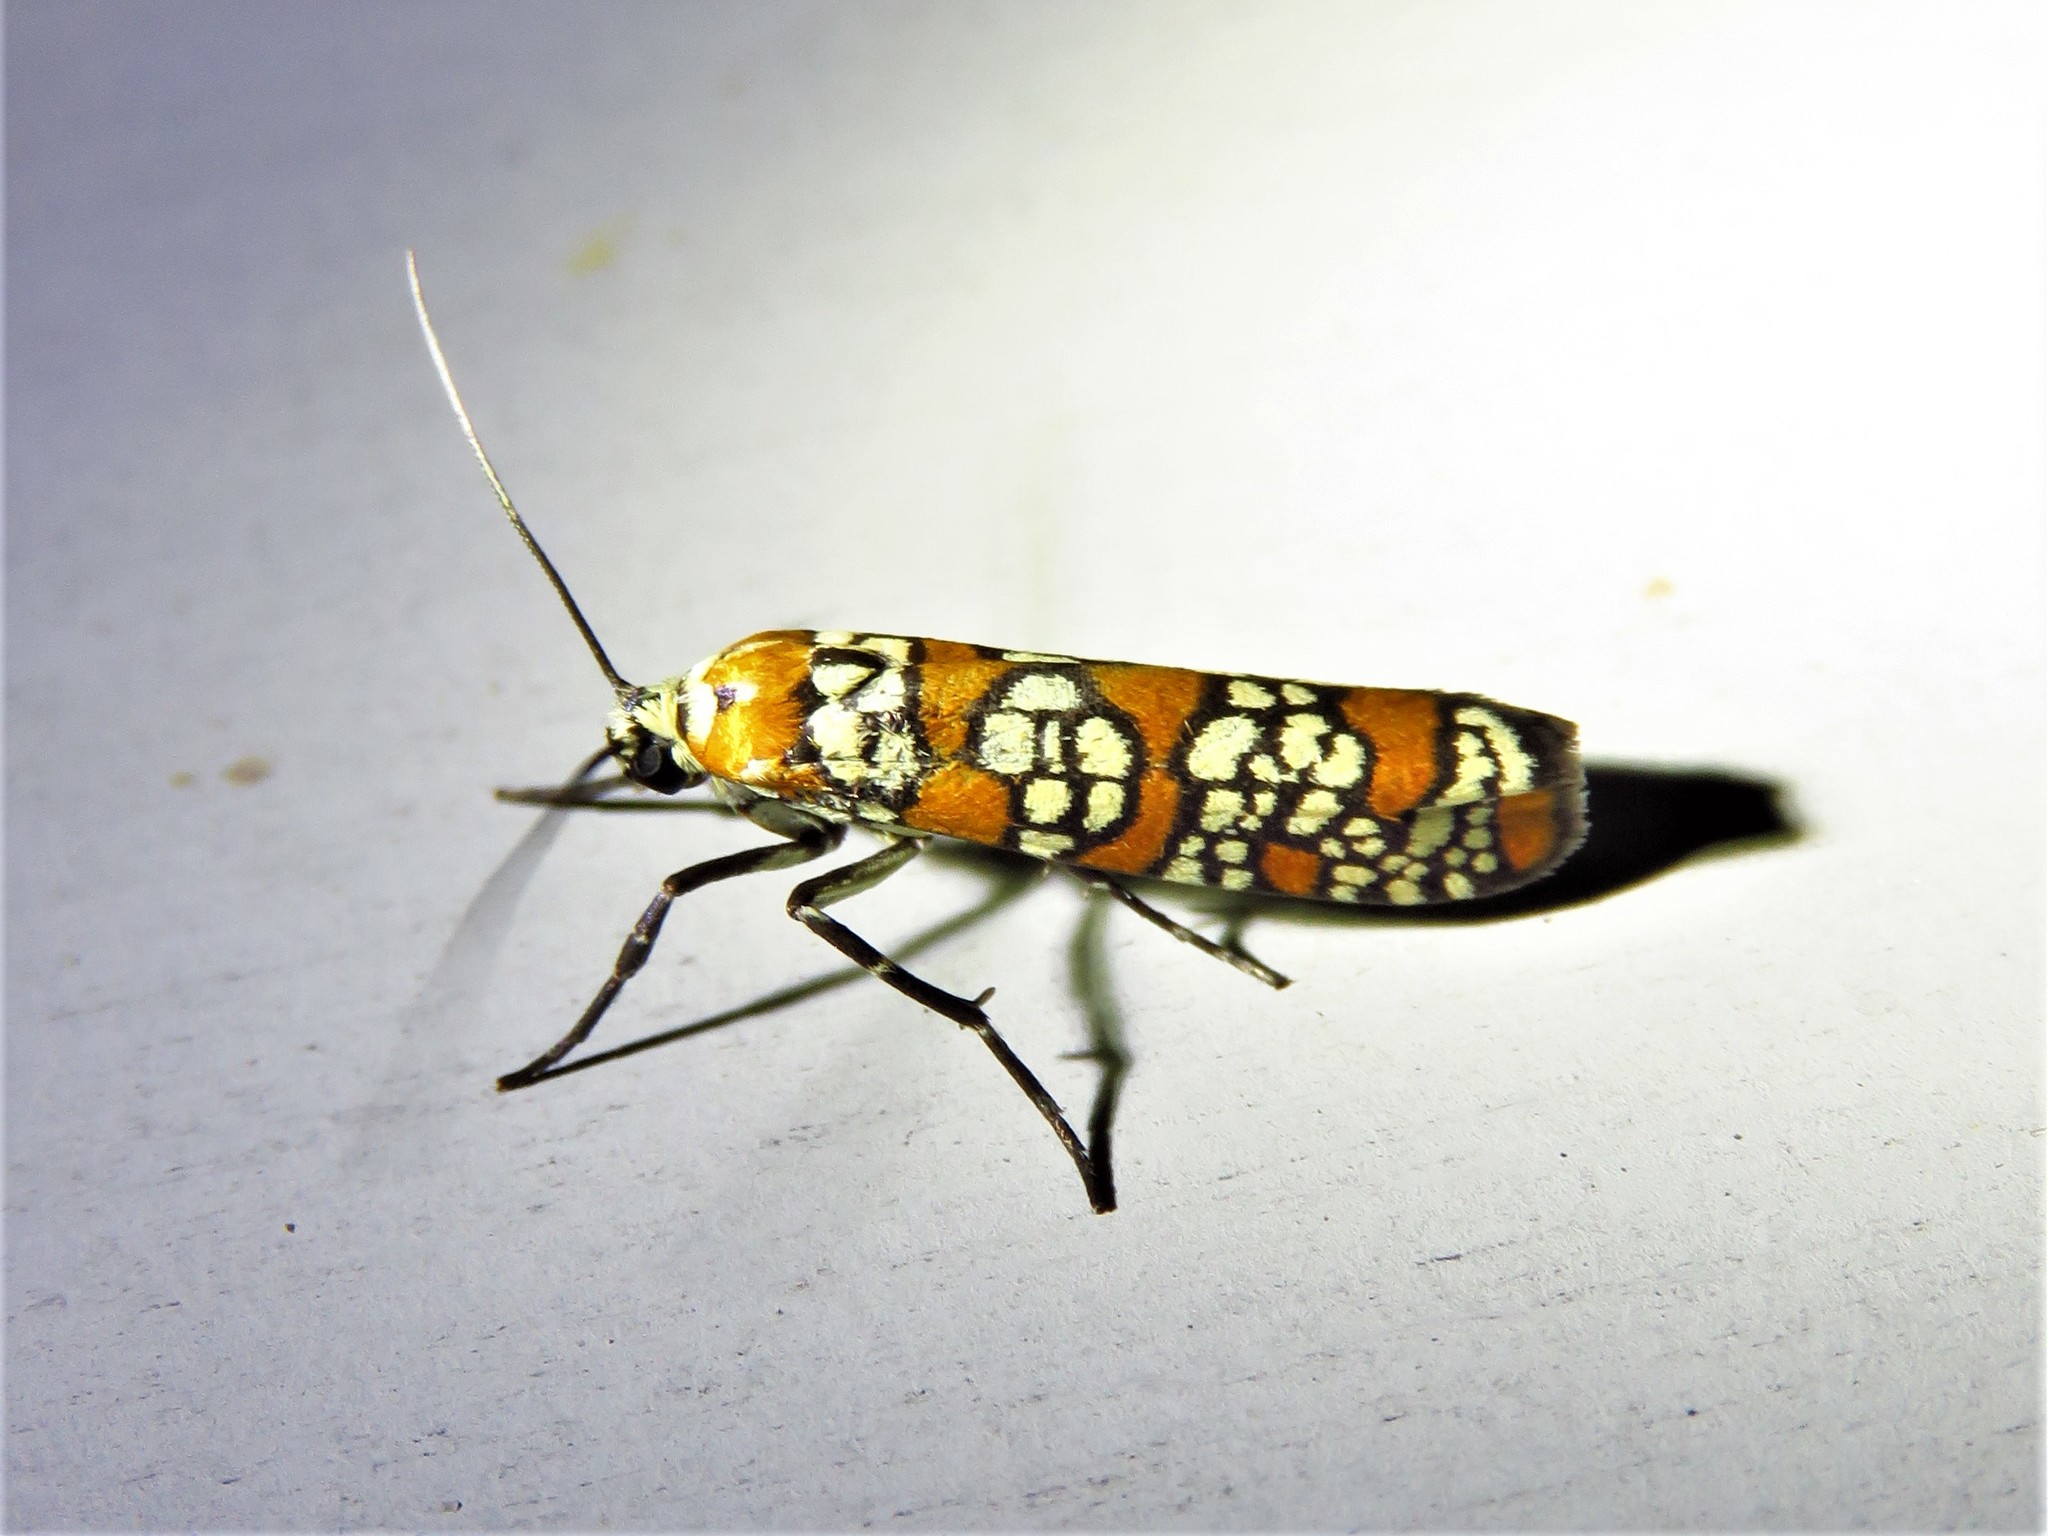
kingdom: Animalia
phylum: Arthropoda
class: Insecta
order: Lepidoptera
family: Attevidae
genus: Atteva
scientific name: Atteva punctella
